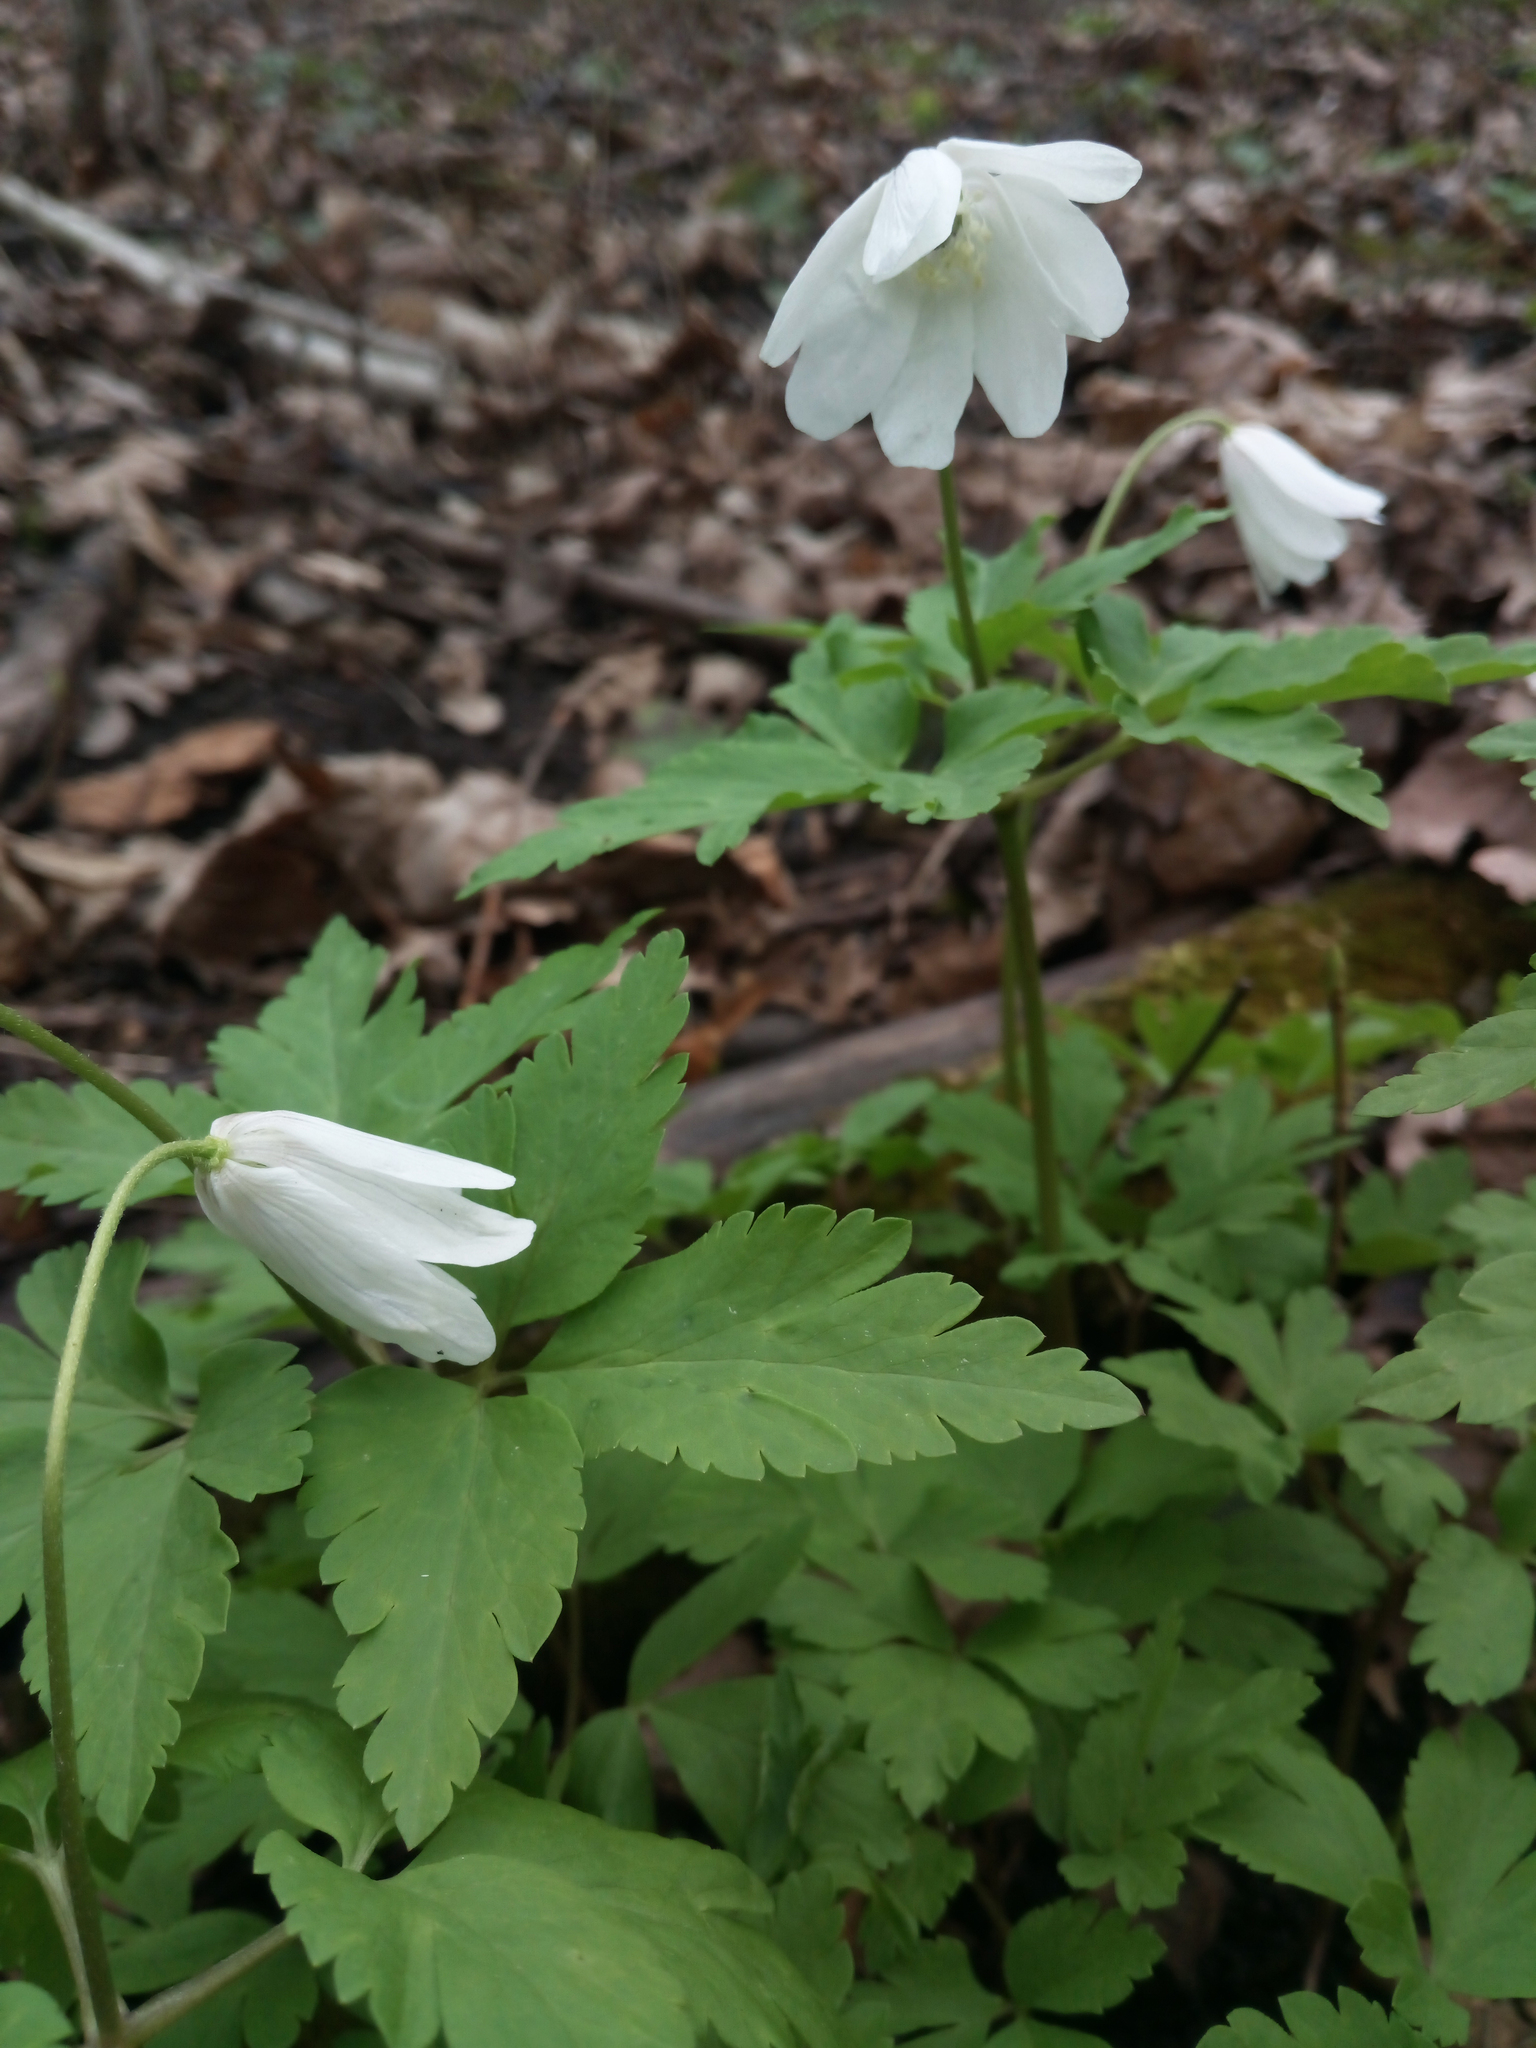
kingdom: Plantae
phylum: Tracheophyta
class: Magnoliopsida
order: Ranunculales
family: Ranunculaceae
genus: Anemone
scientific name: Anemone altaica
